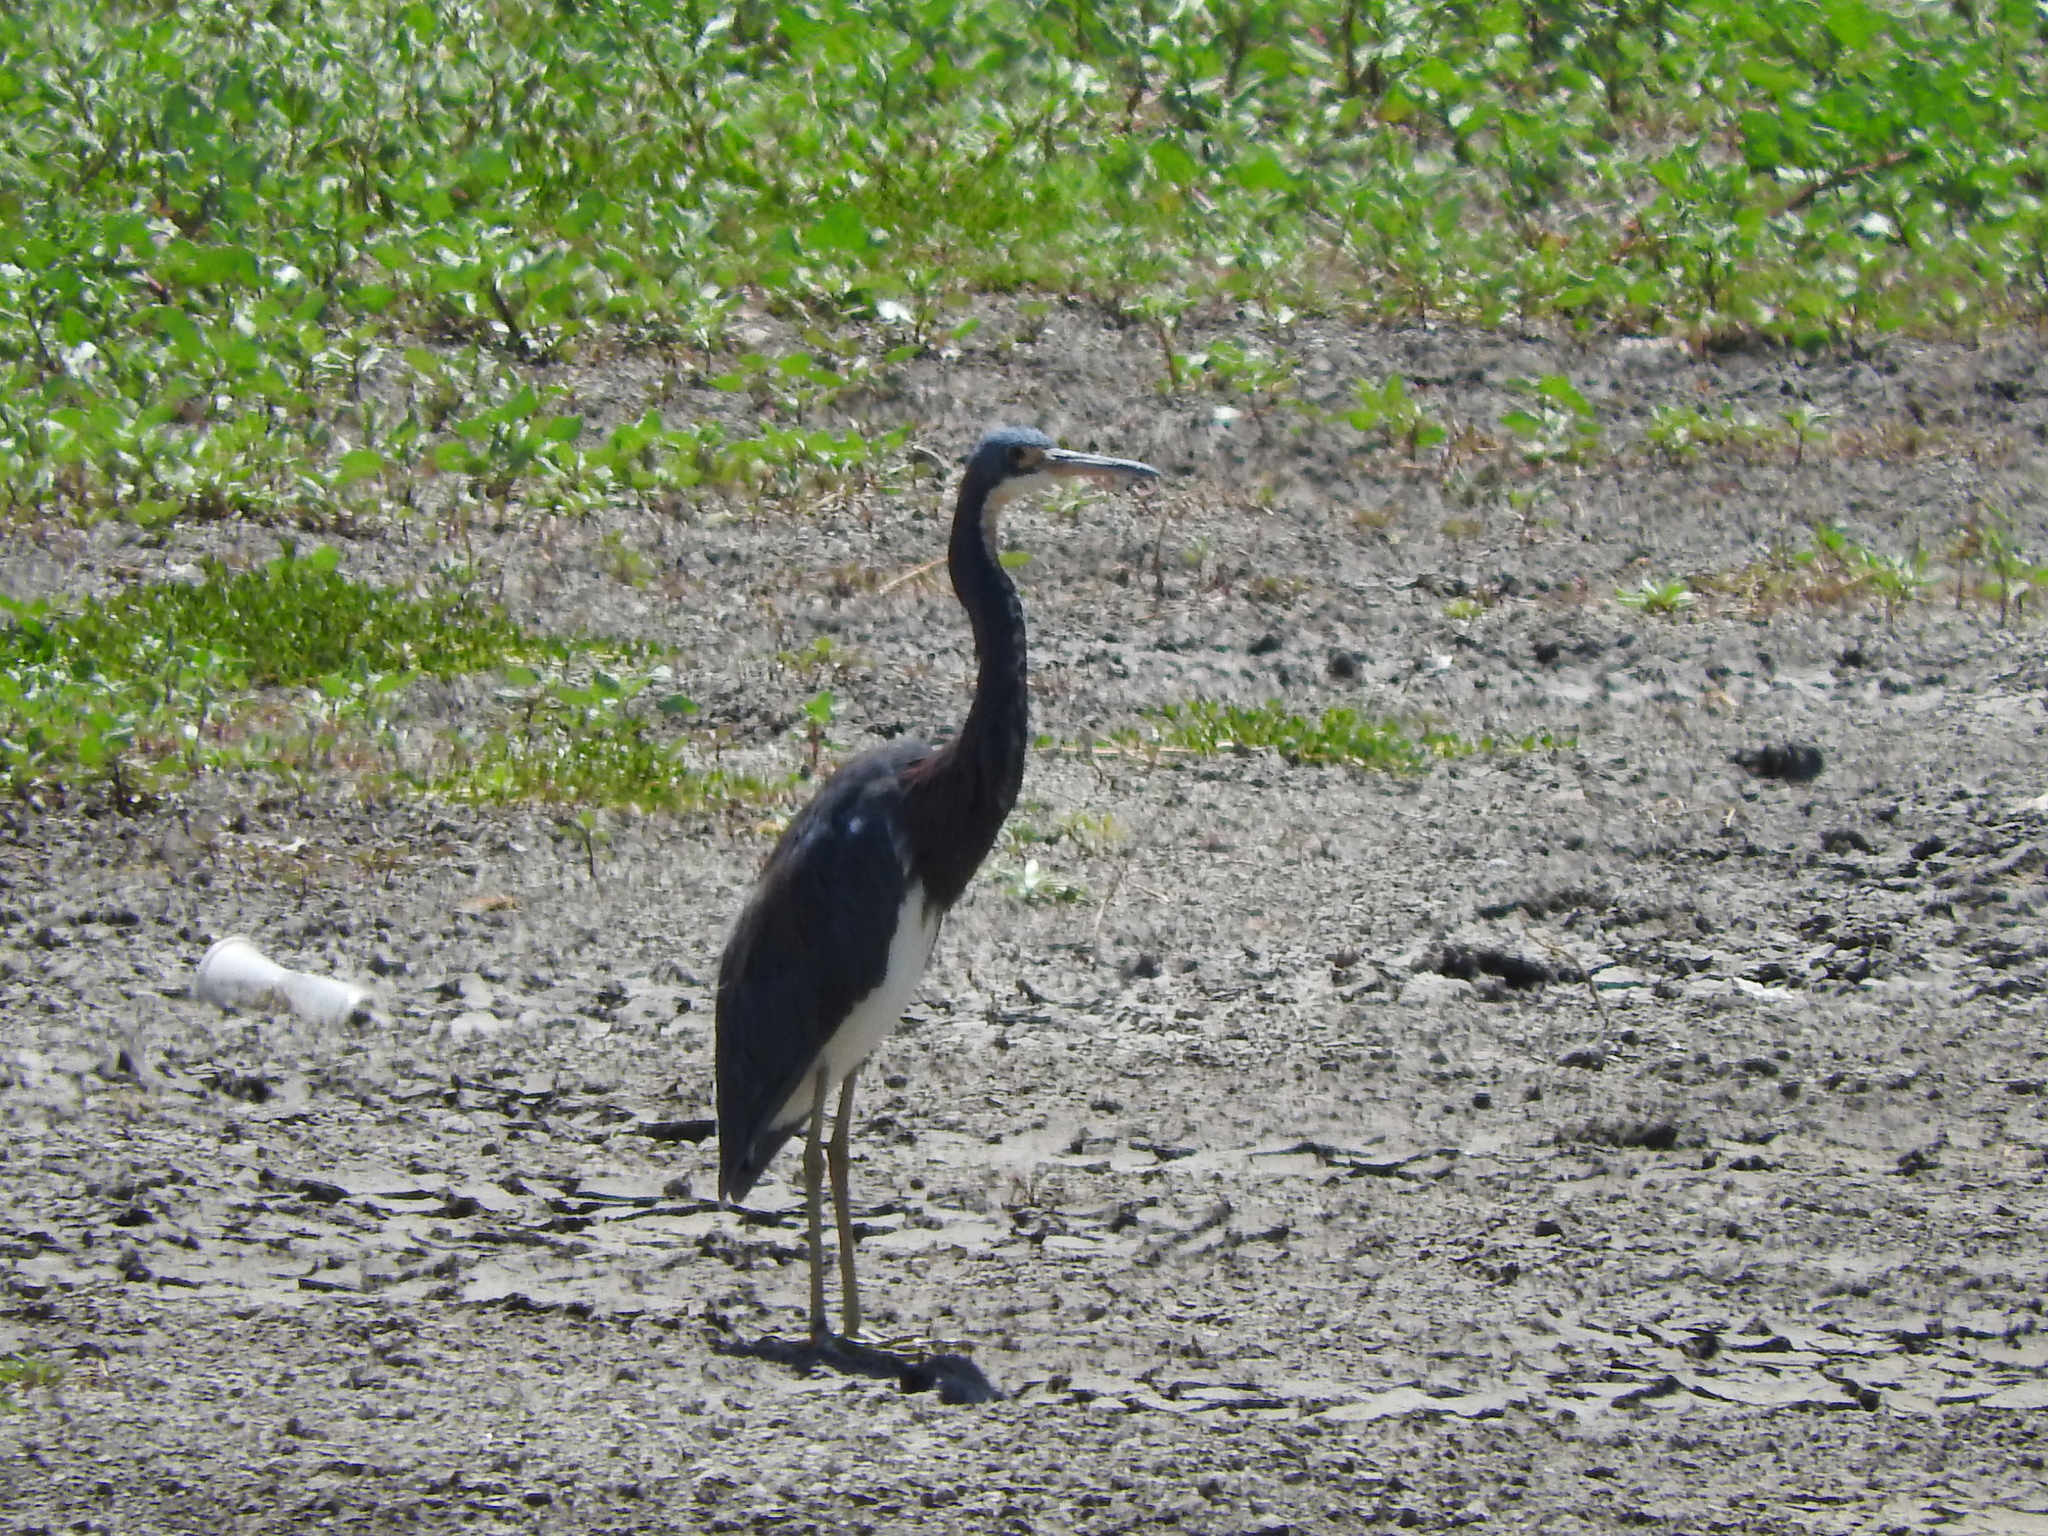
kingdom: Animalia
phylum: Chordata
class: Aves
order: Pelecaniformes
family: Ardeidae
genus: Egretta
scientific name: Egretta tricolor
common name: Tricolored heron
